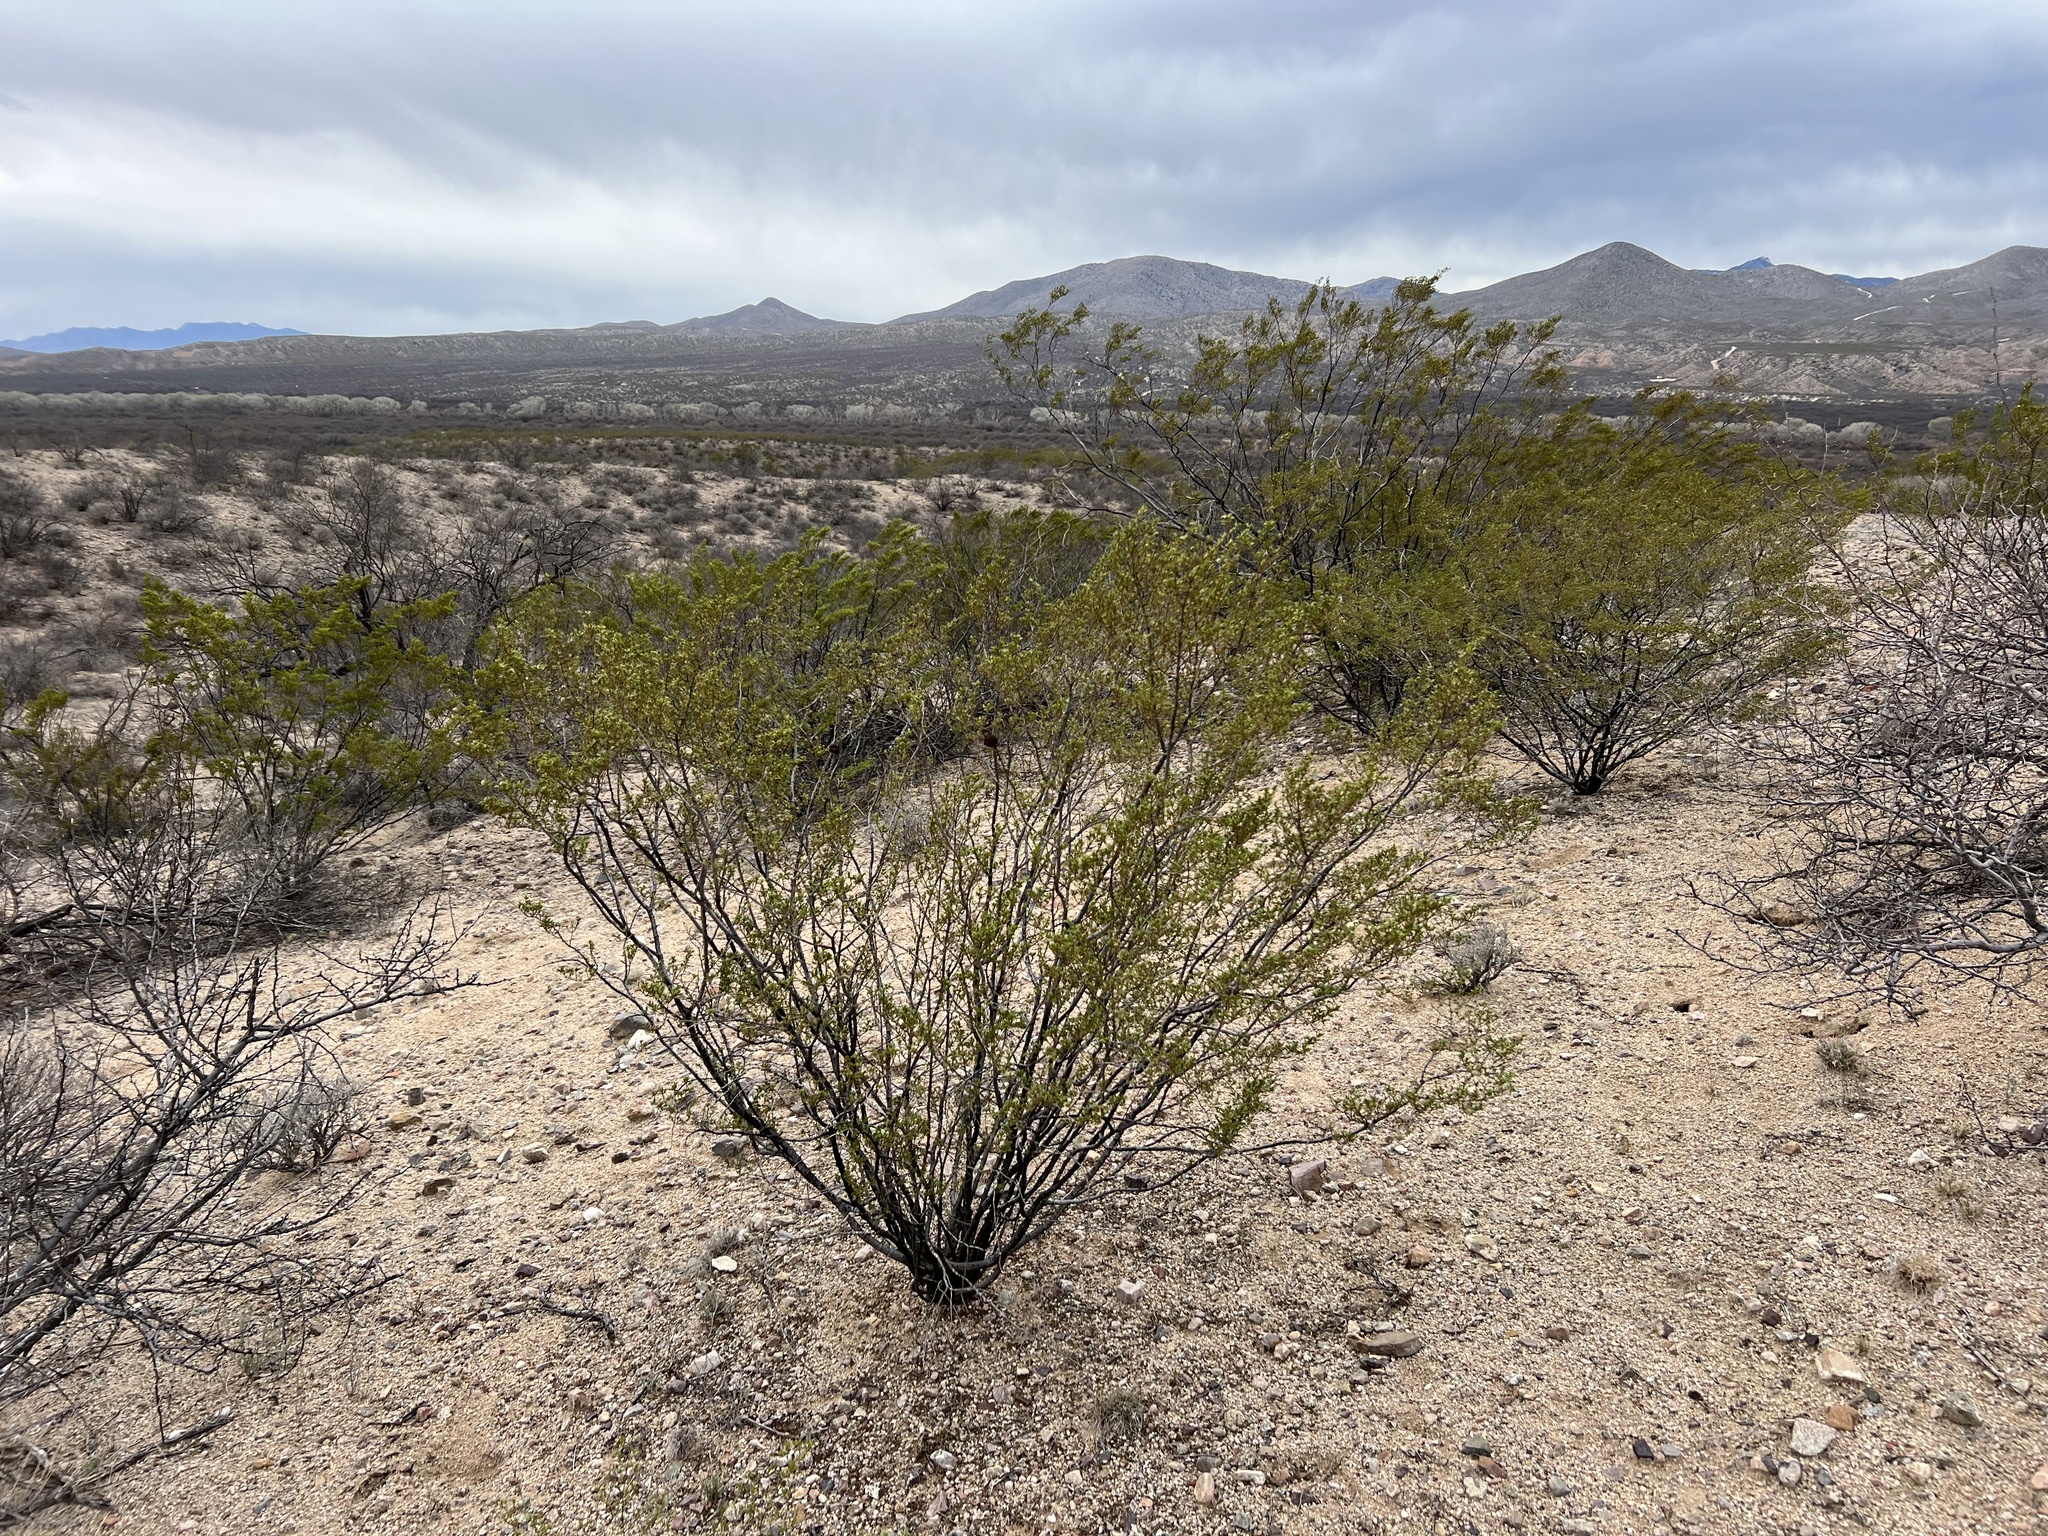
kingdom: Plantae
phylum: Tracheophyta
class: Magnoliopsida
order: Zygophyllales
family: Zygophyllaceae
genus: Larrea
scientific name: Larrea tridentata
